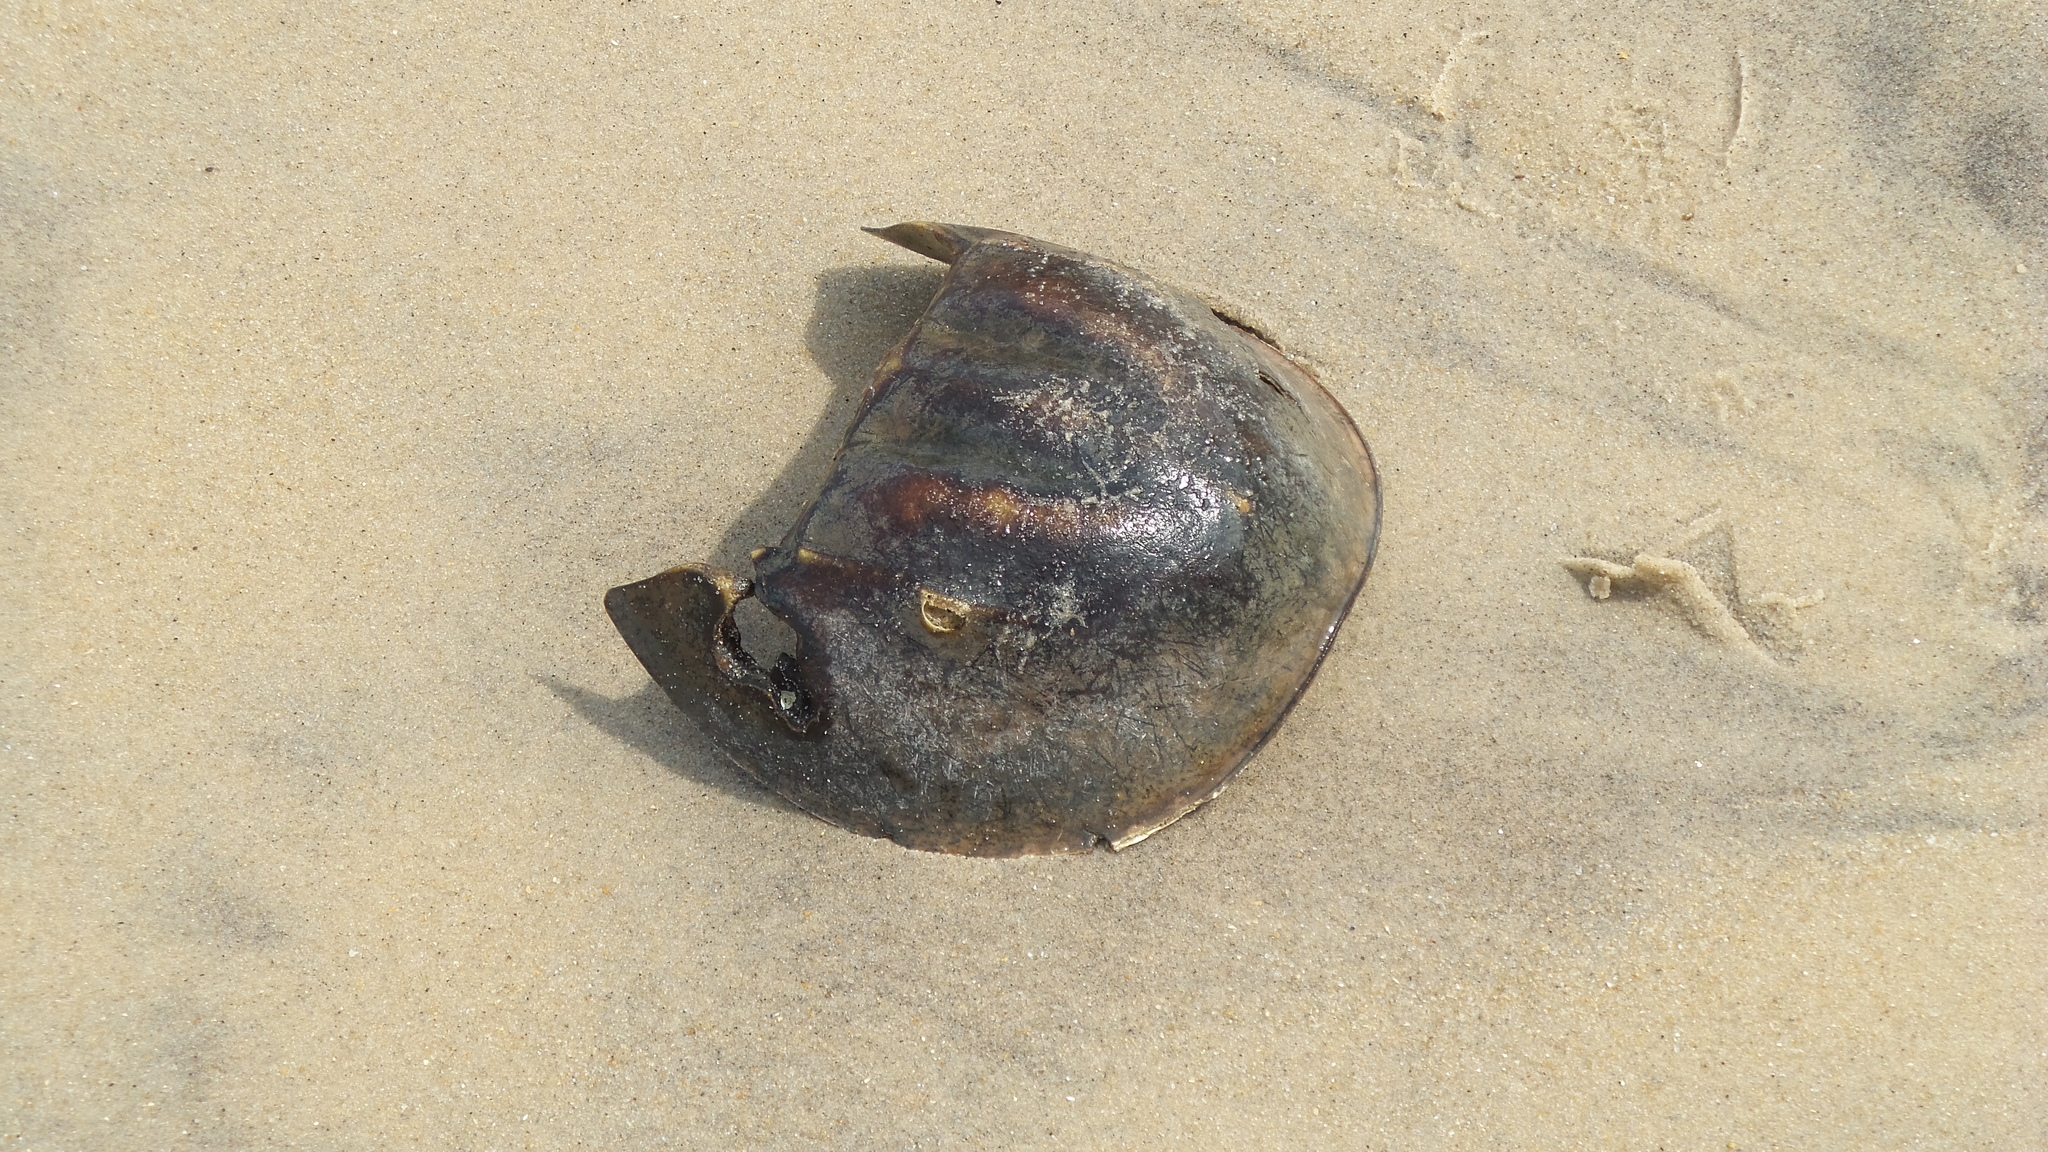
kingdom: Animalia
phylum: Arthropoda
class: Merostomata
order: Xiphosurida
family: Limulidae
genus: Limulus
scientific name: Limulus polyphemus
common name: Horseshoe crab
